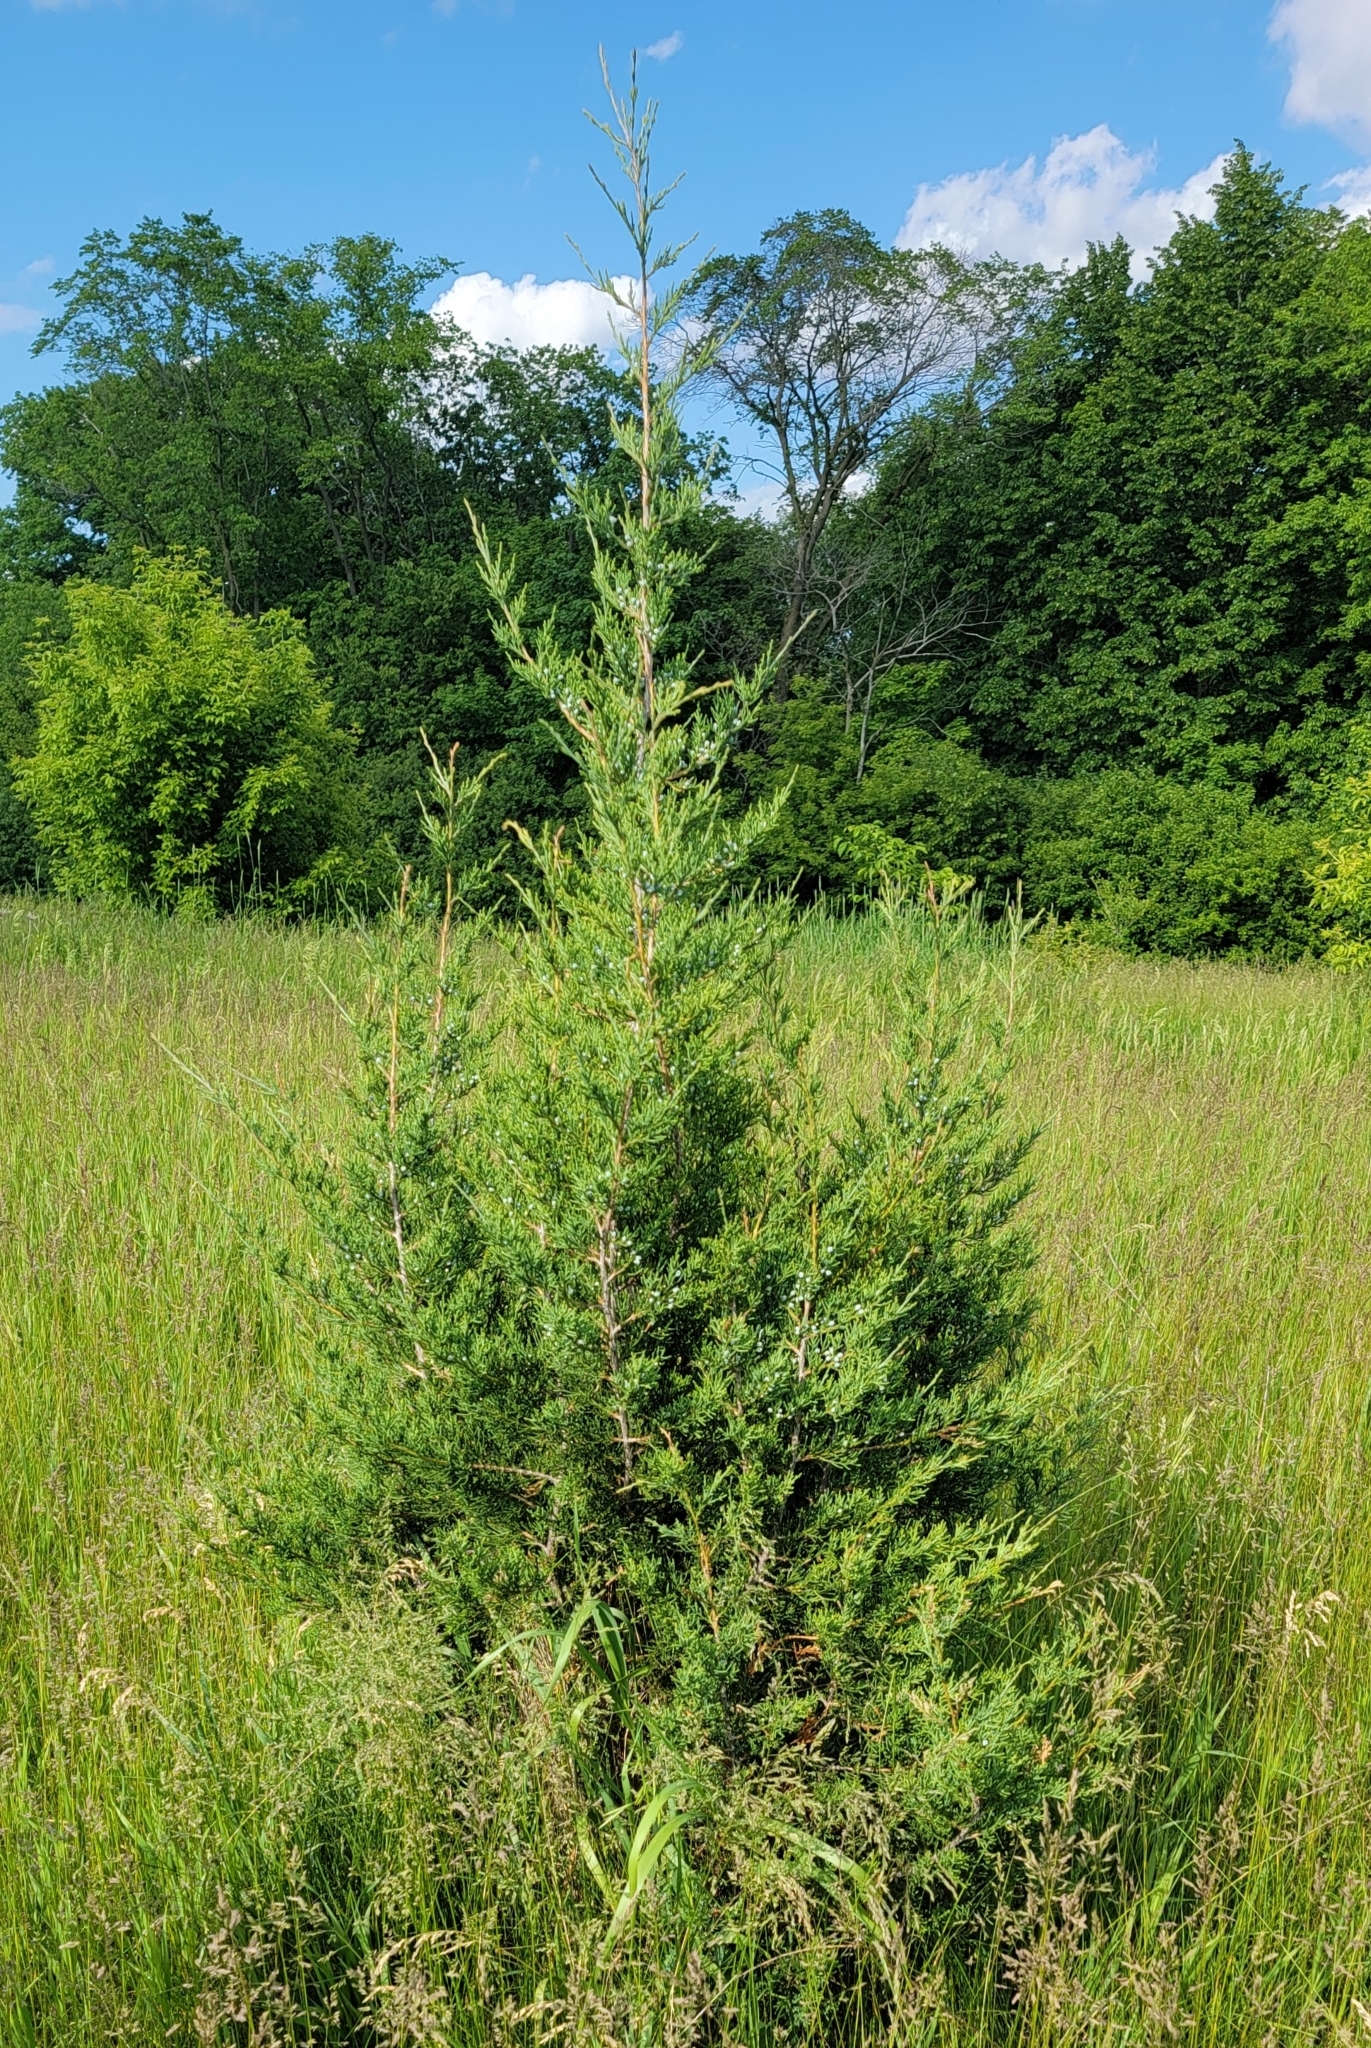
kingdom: Plantae
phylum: Tracheophyta
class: Pinopsida
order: Pinales
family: Cupressaceae
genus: Juniperus
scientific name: Juniperus virginiana
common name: Red juniper
